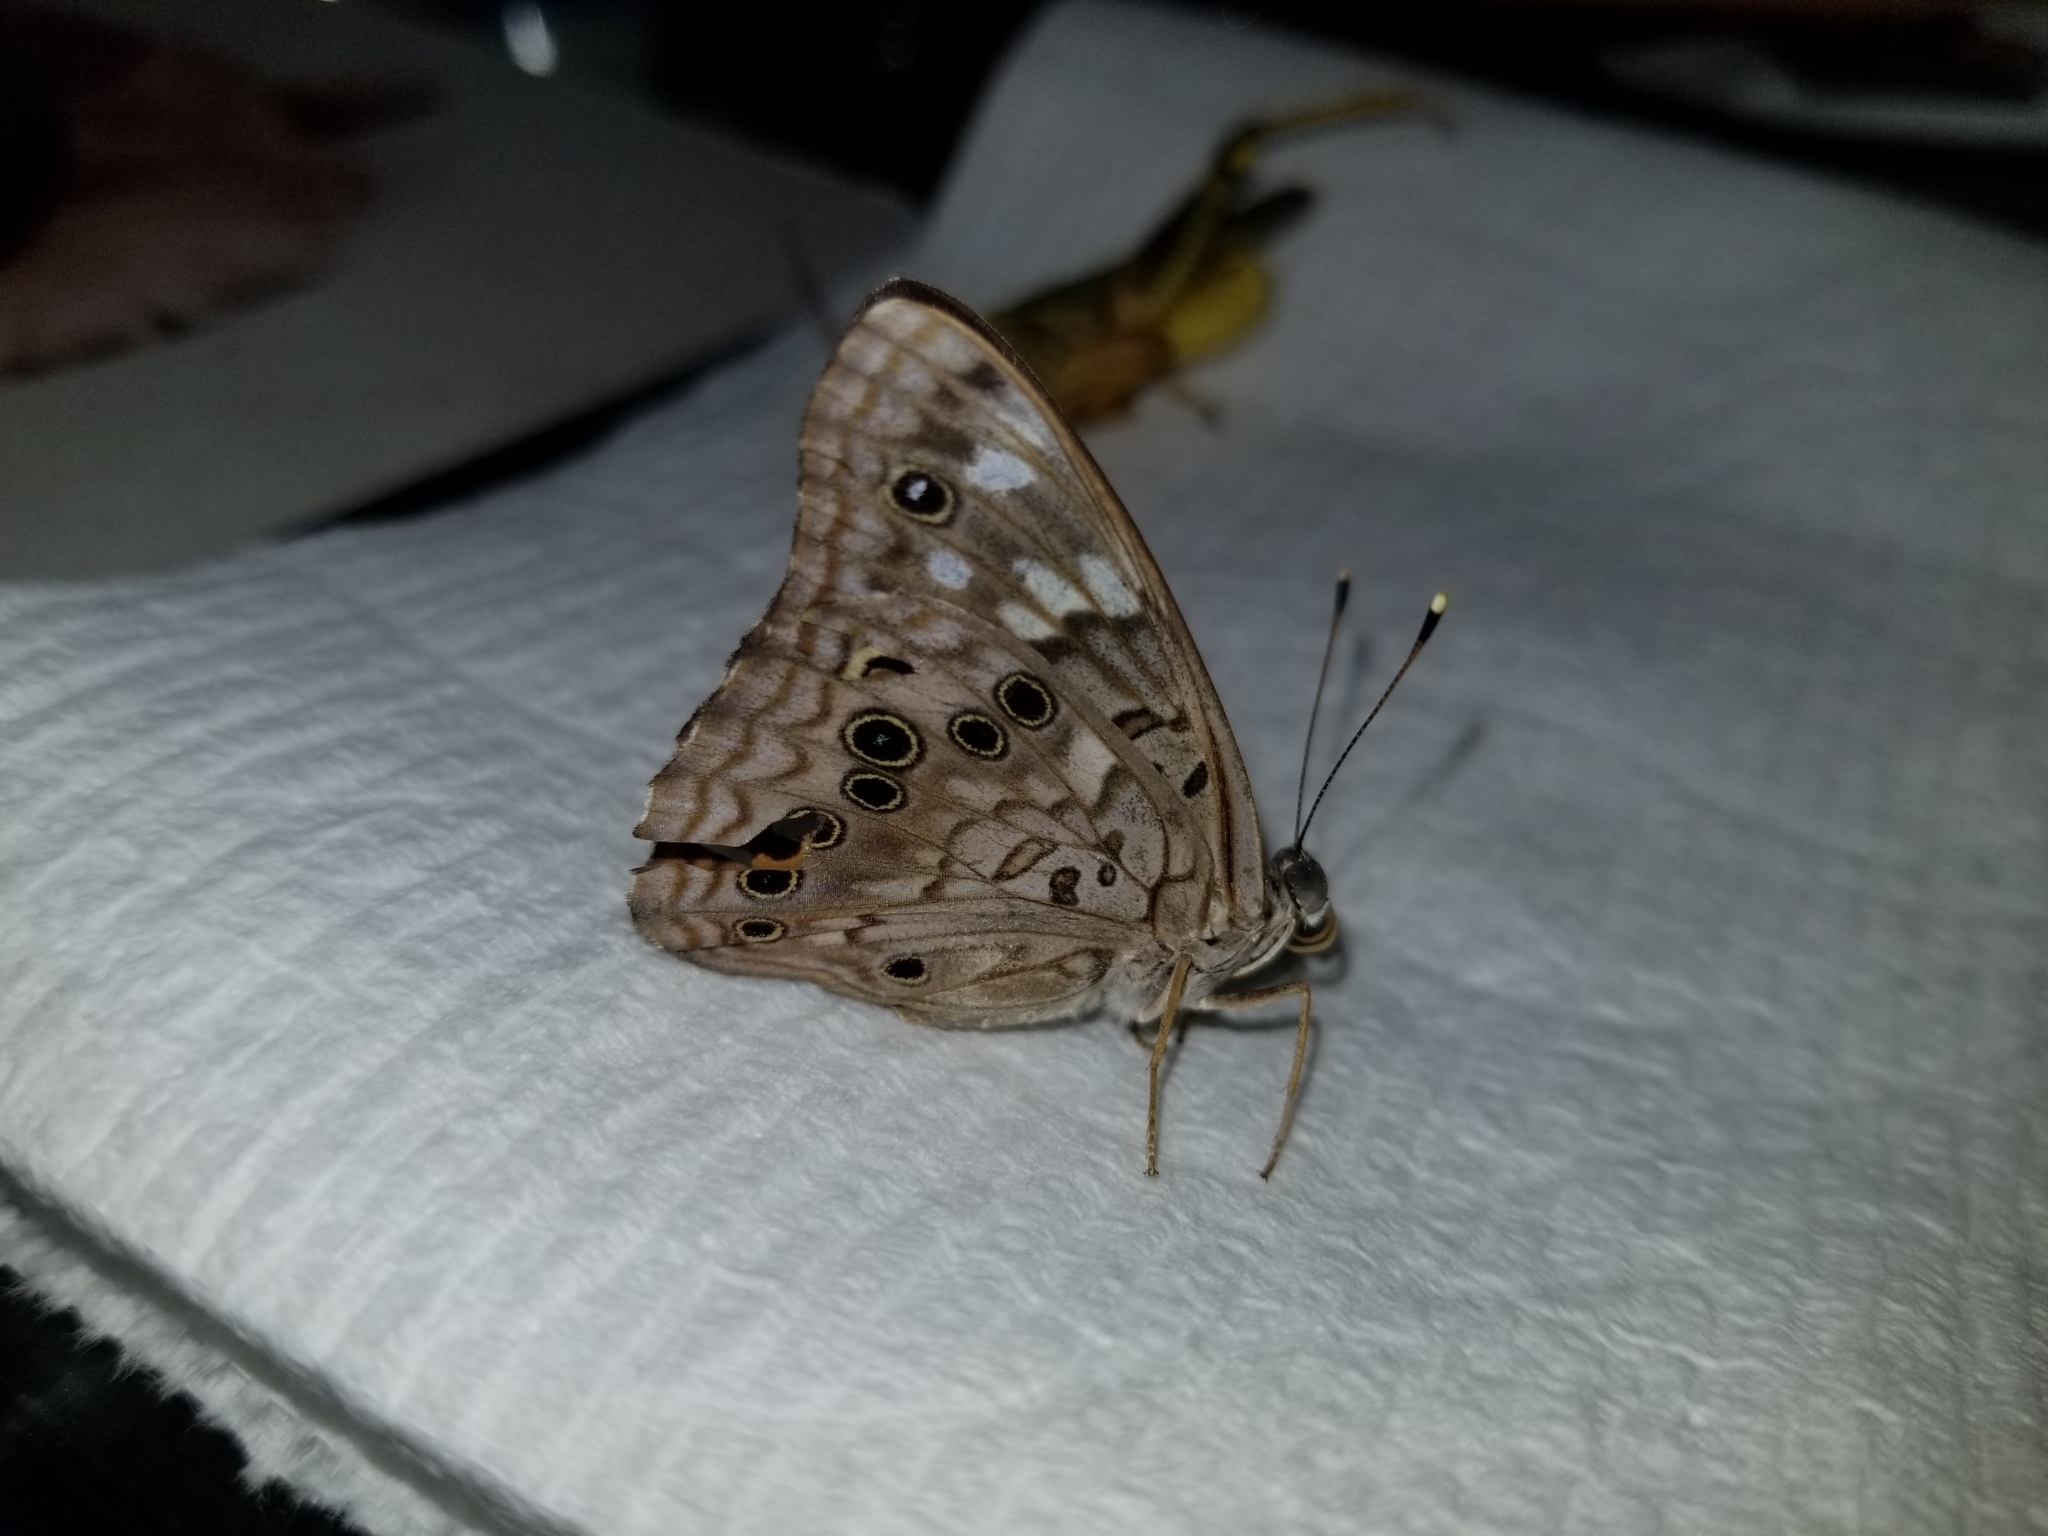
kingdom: Animalia
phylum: Arthropoda
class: Insecta
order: Lepidoptera
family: Nymphalidae
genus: Asterocampa
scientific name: Asterocampa celtis
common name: Hackberry emperor
